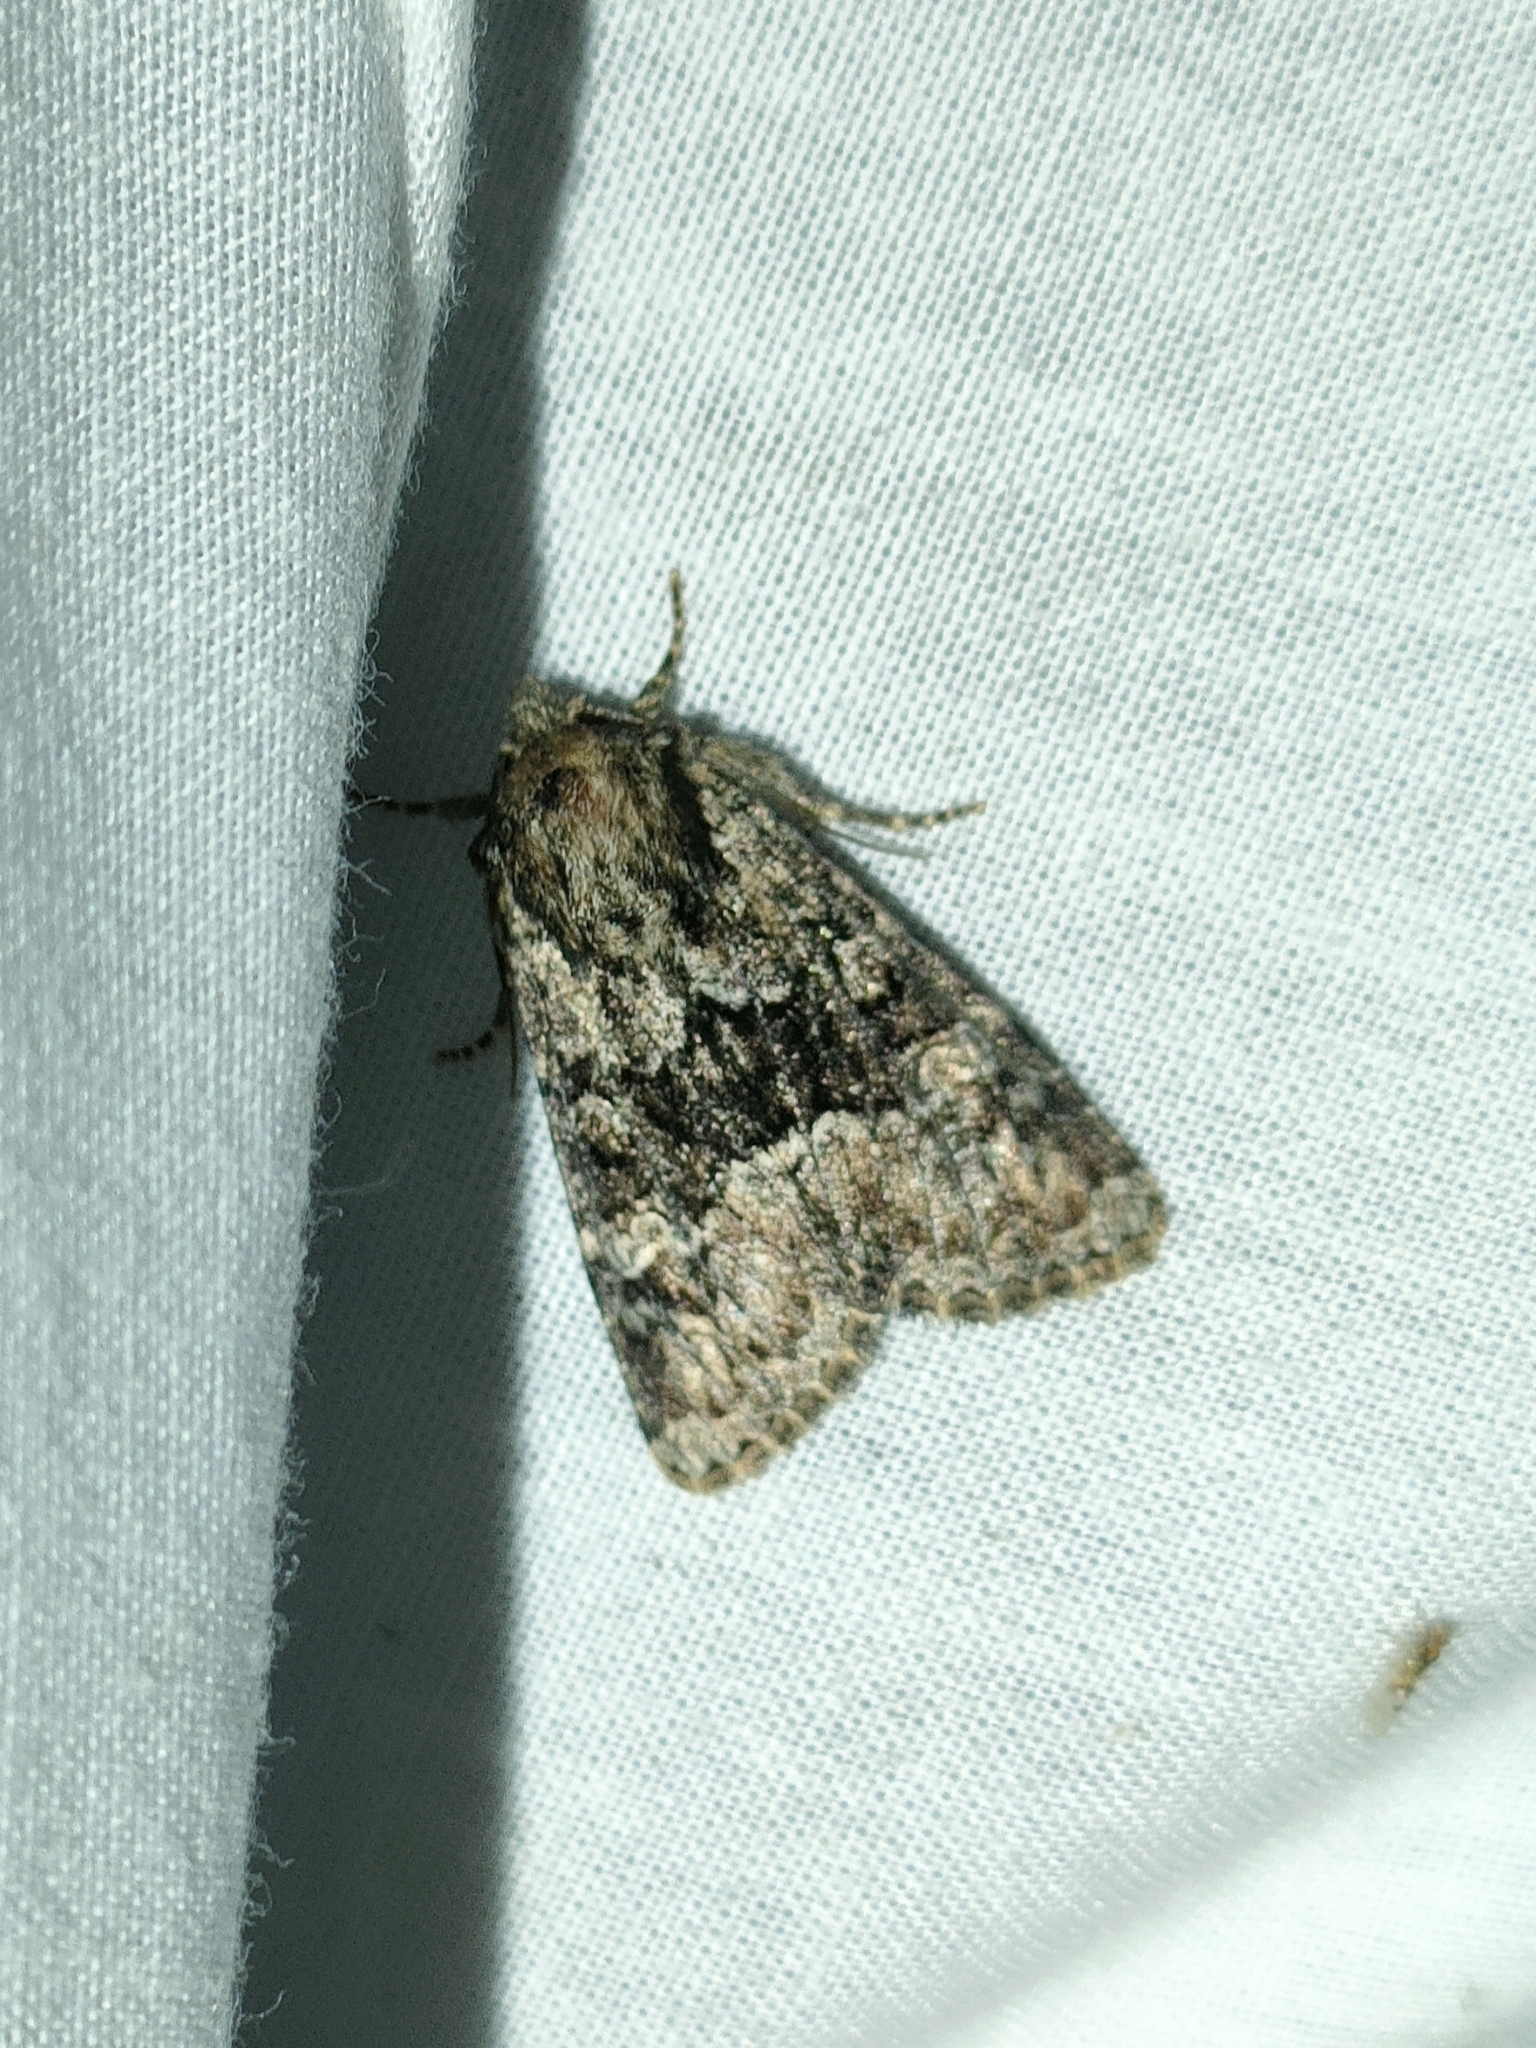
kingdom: Animalia
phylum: Arthropoda
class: Insecta
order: Lepidoptera
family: Noctuidae
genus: Apamea
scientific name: Apamea illyria
